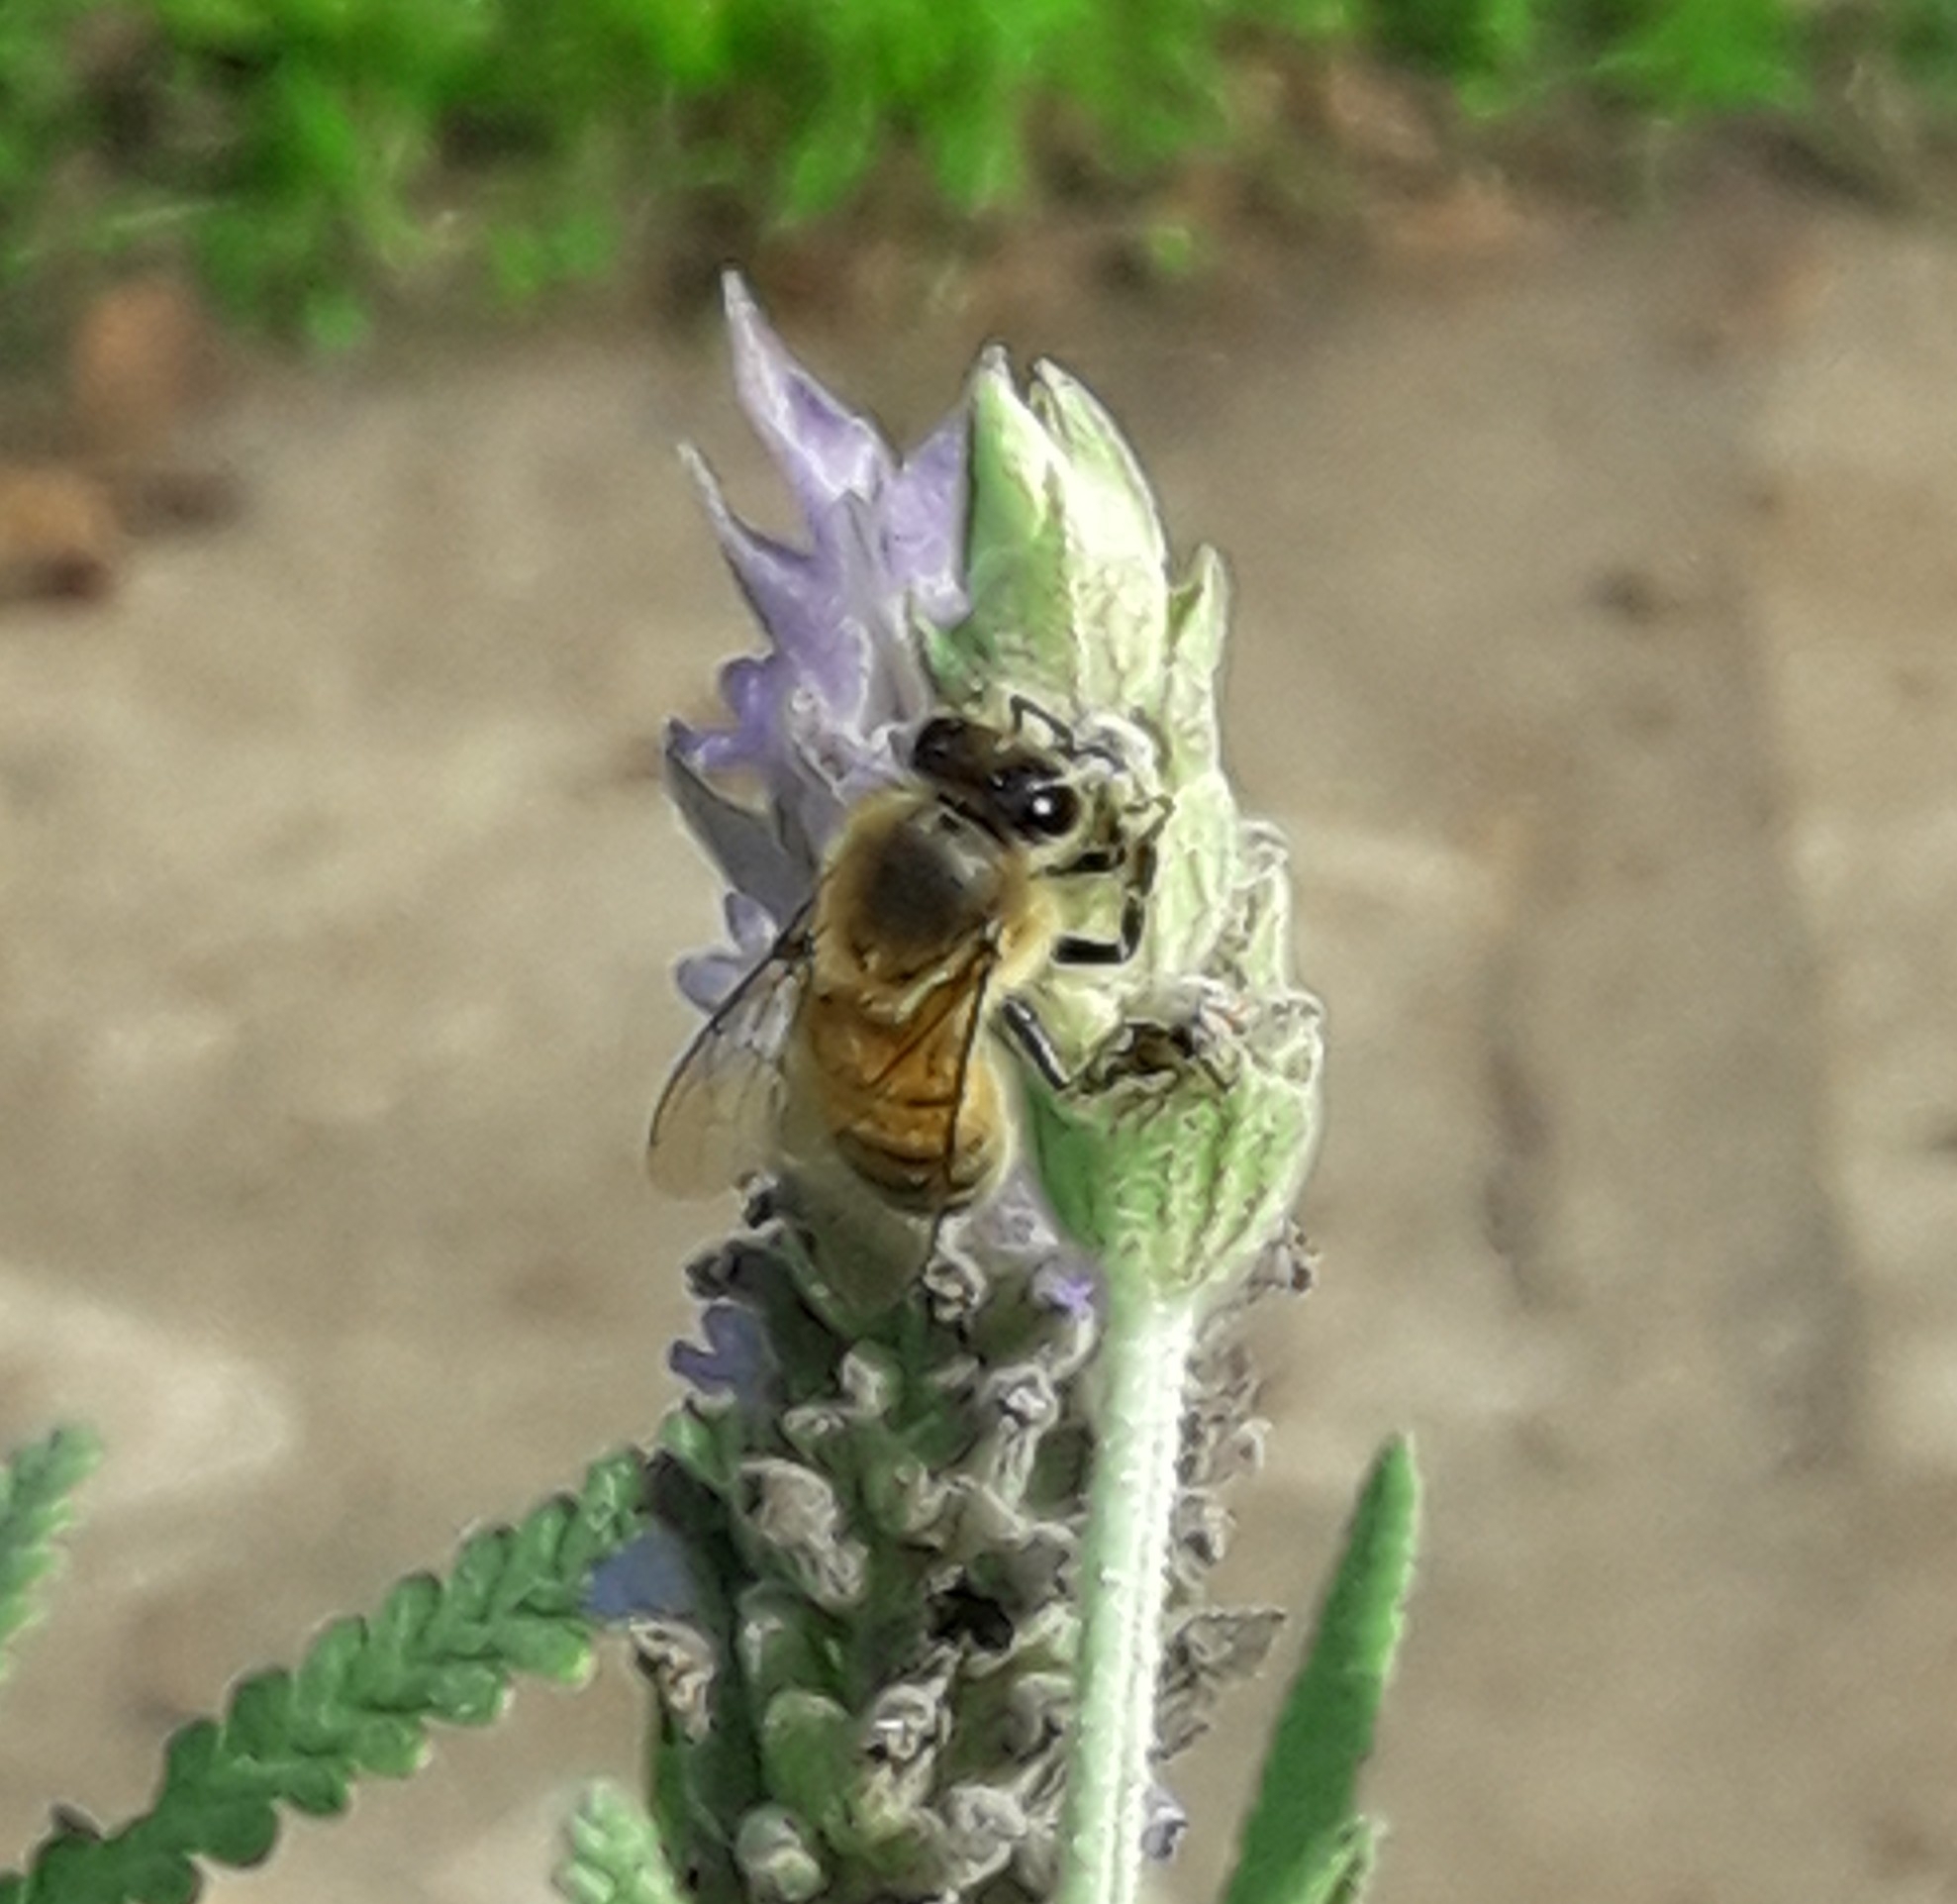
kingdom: Animalia
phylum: Arthropoda
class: Insecta
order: Hymenoptera
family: Apidae
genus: Apis
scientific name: Apis mellifera
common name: Honey bee
